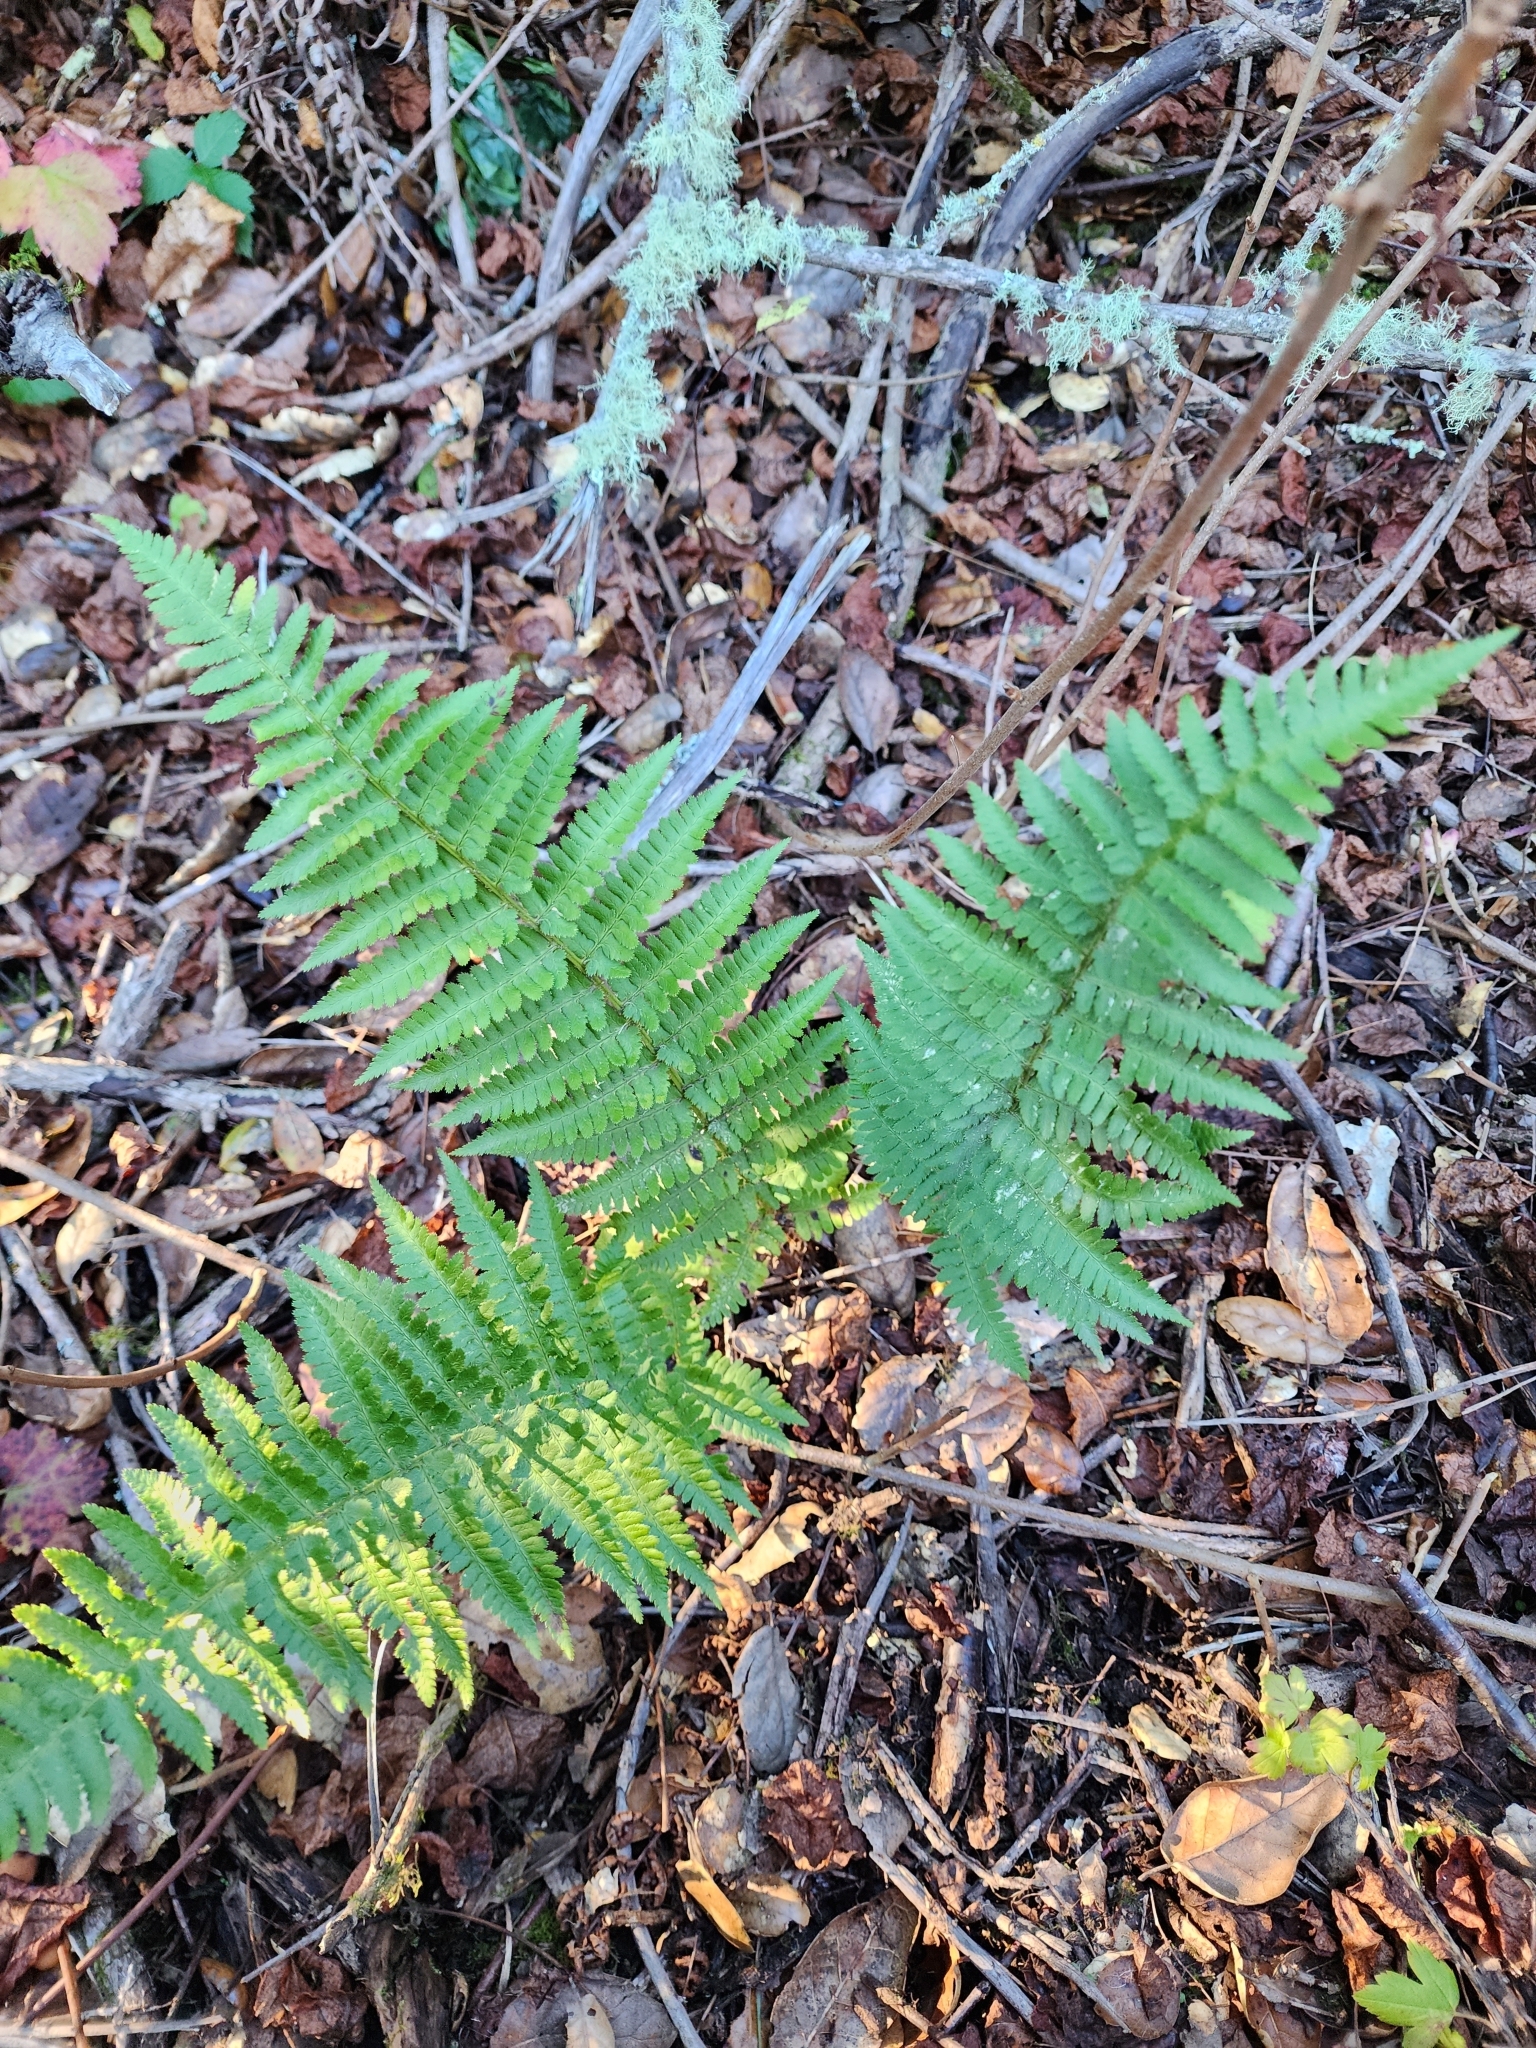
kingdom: Plantae
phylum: Tracheophyta
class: Polypodiopsida
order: Polypodiales
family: Dryopteridaceae
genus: Dryopteris
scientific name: Dryopteris arguta
